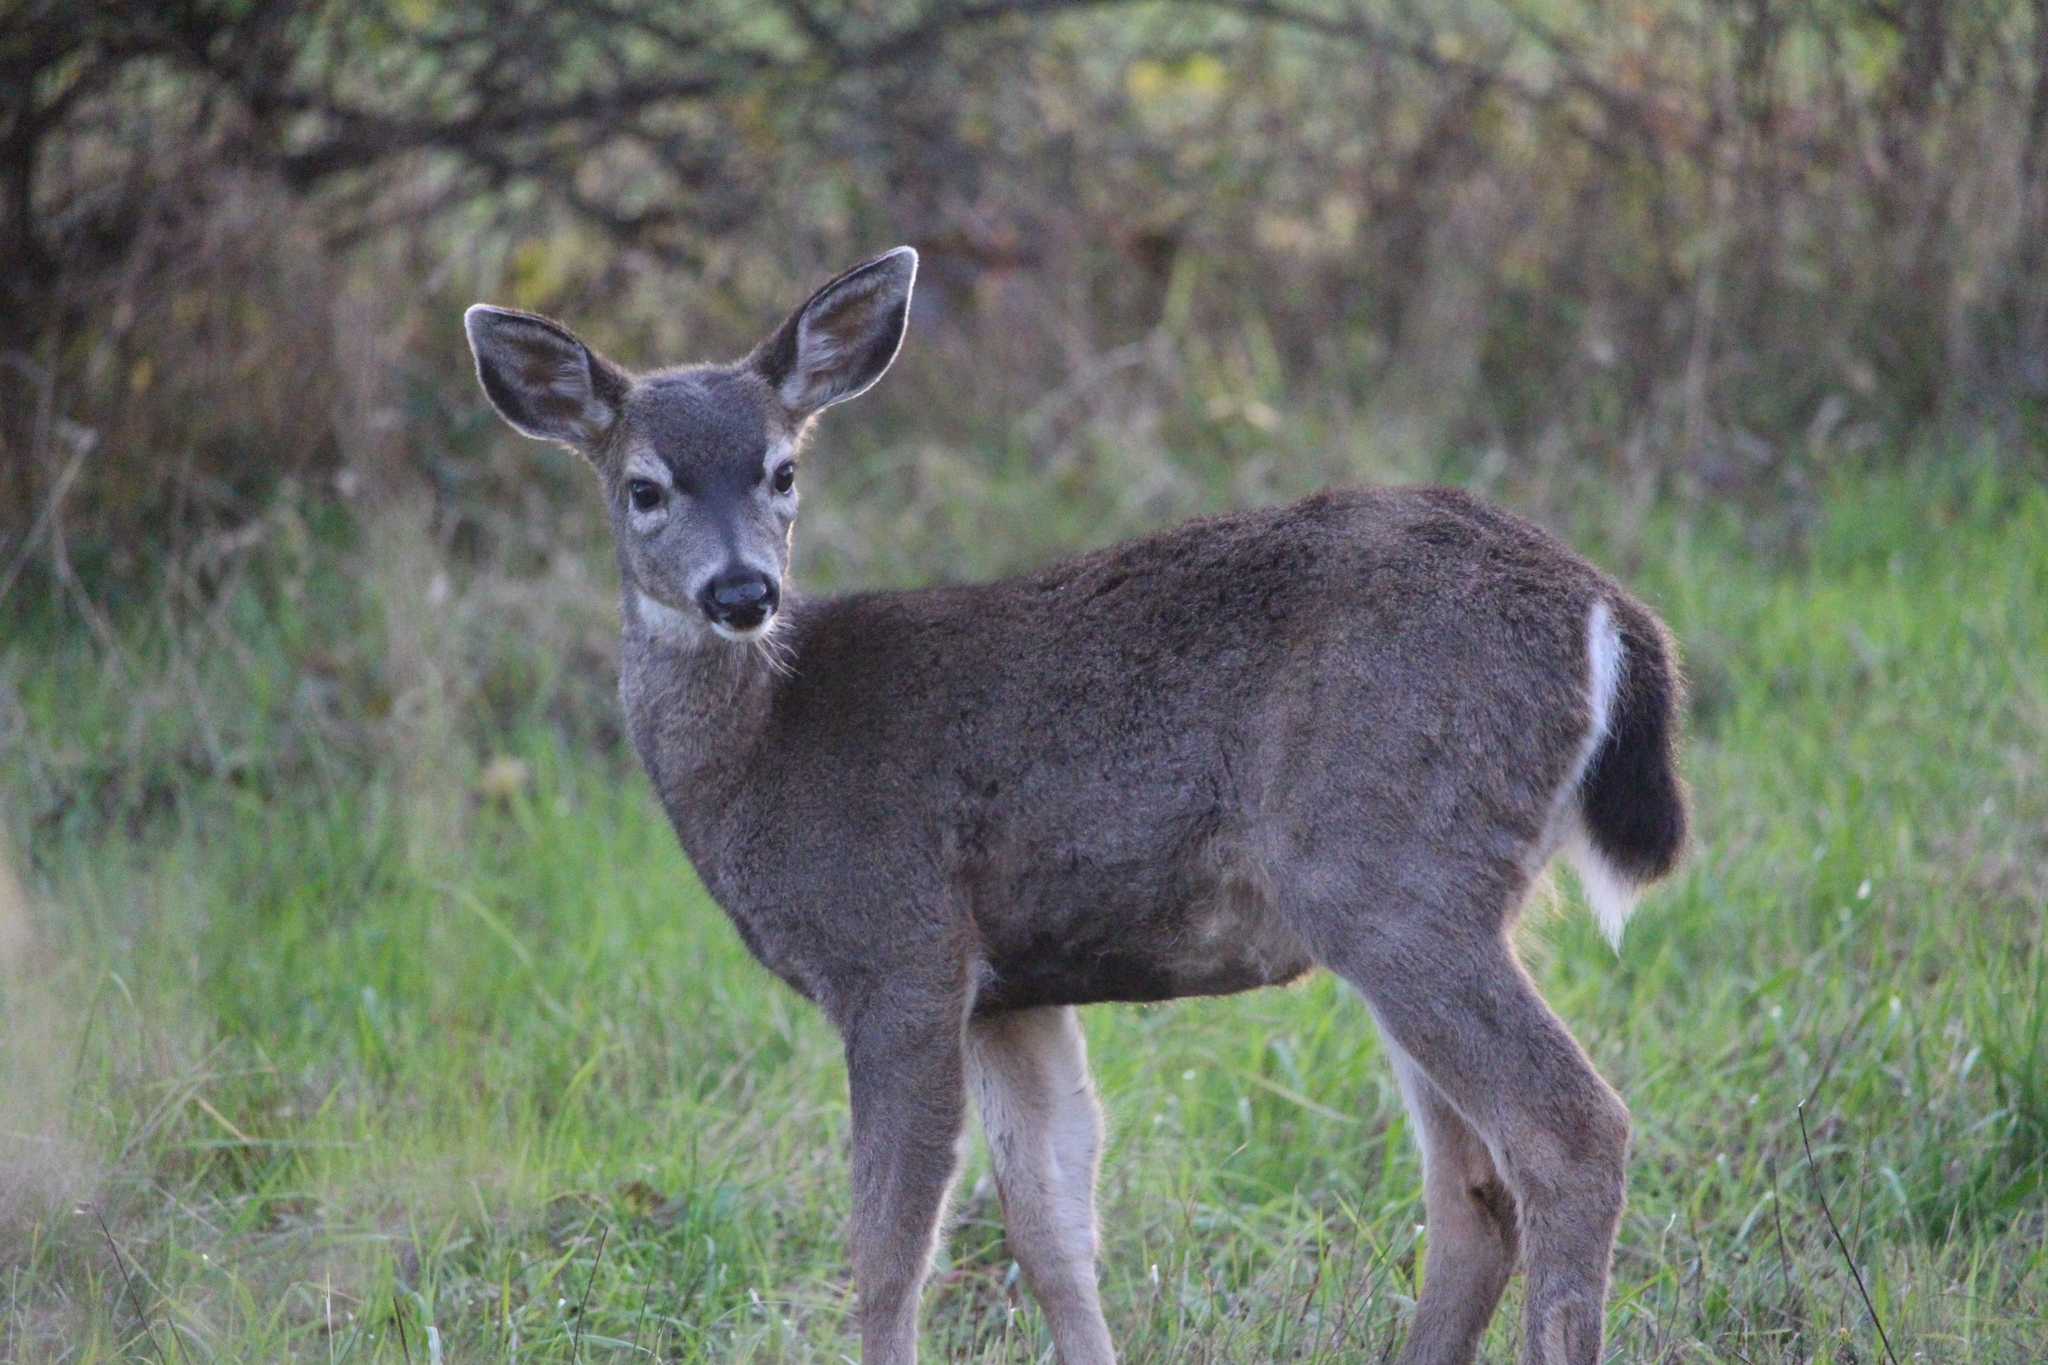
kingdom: Animalia
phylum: Chordata
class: Mammalia
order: Artiodactyla
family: Cervidae
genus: Odocoileus
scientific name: Odocoileus hemionus
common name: Mule deer
